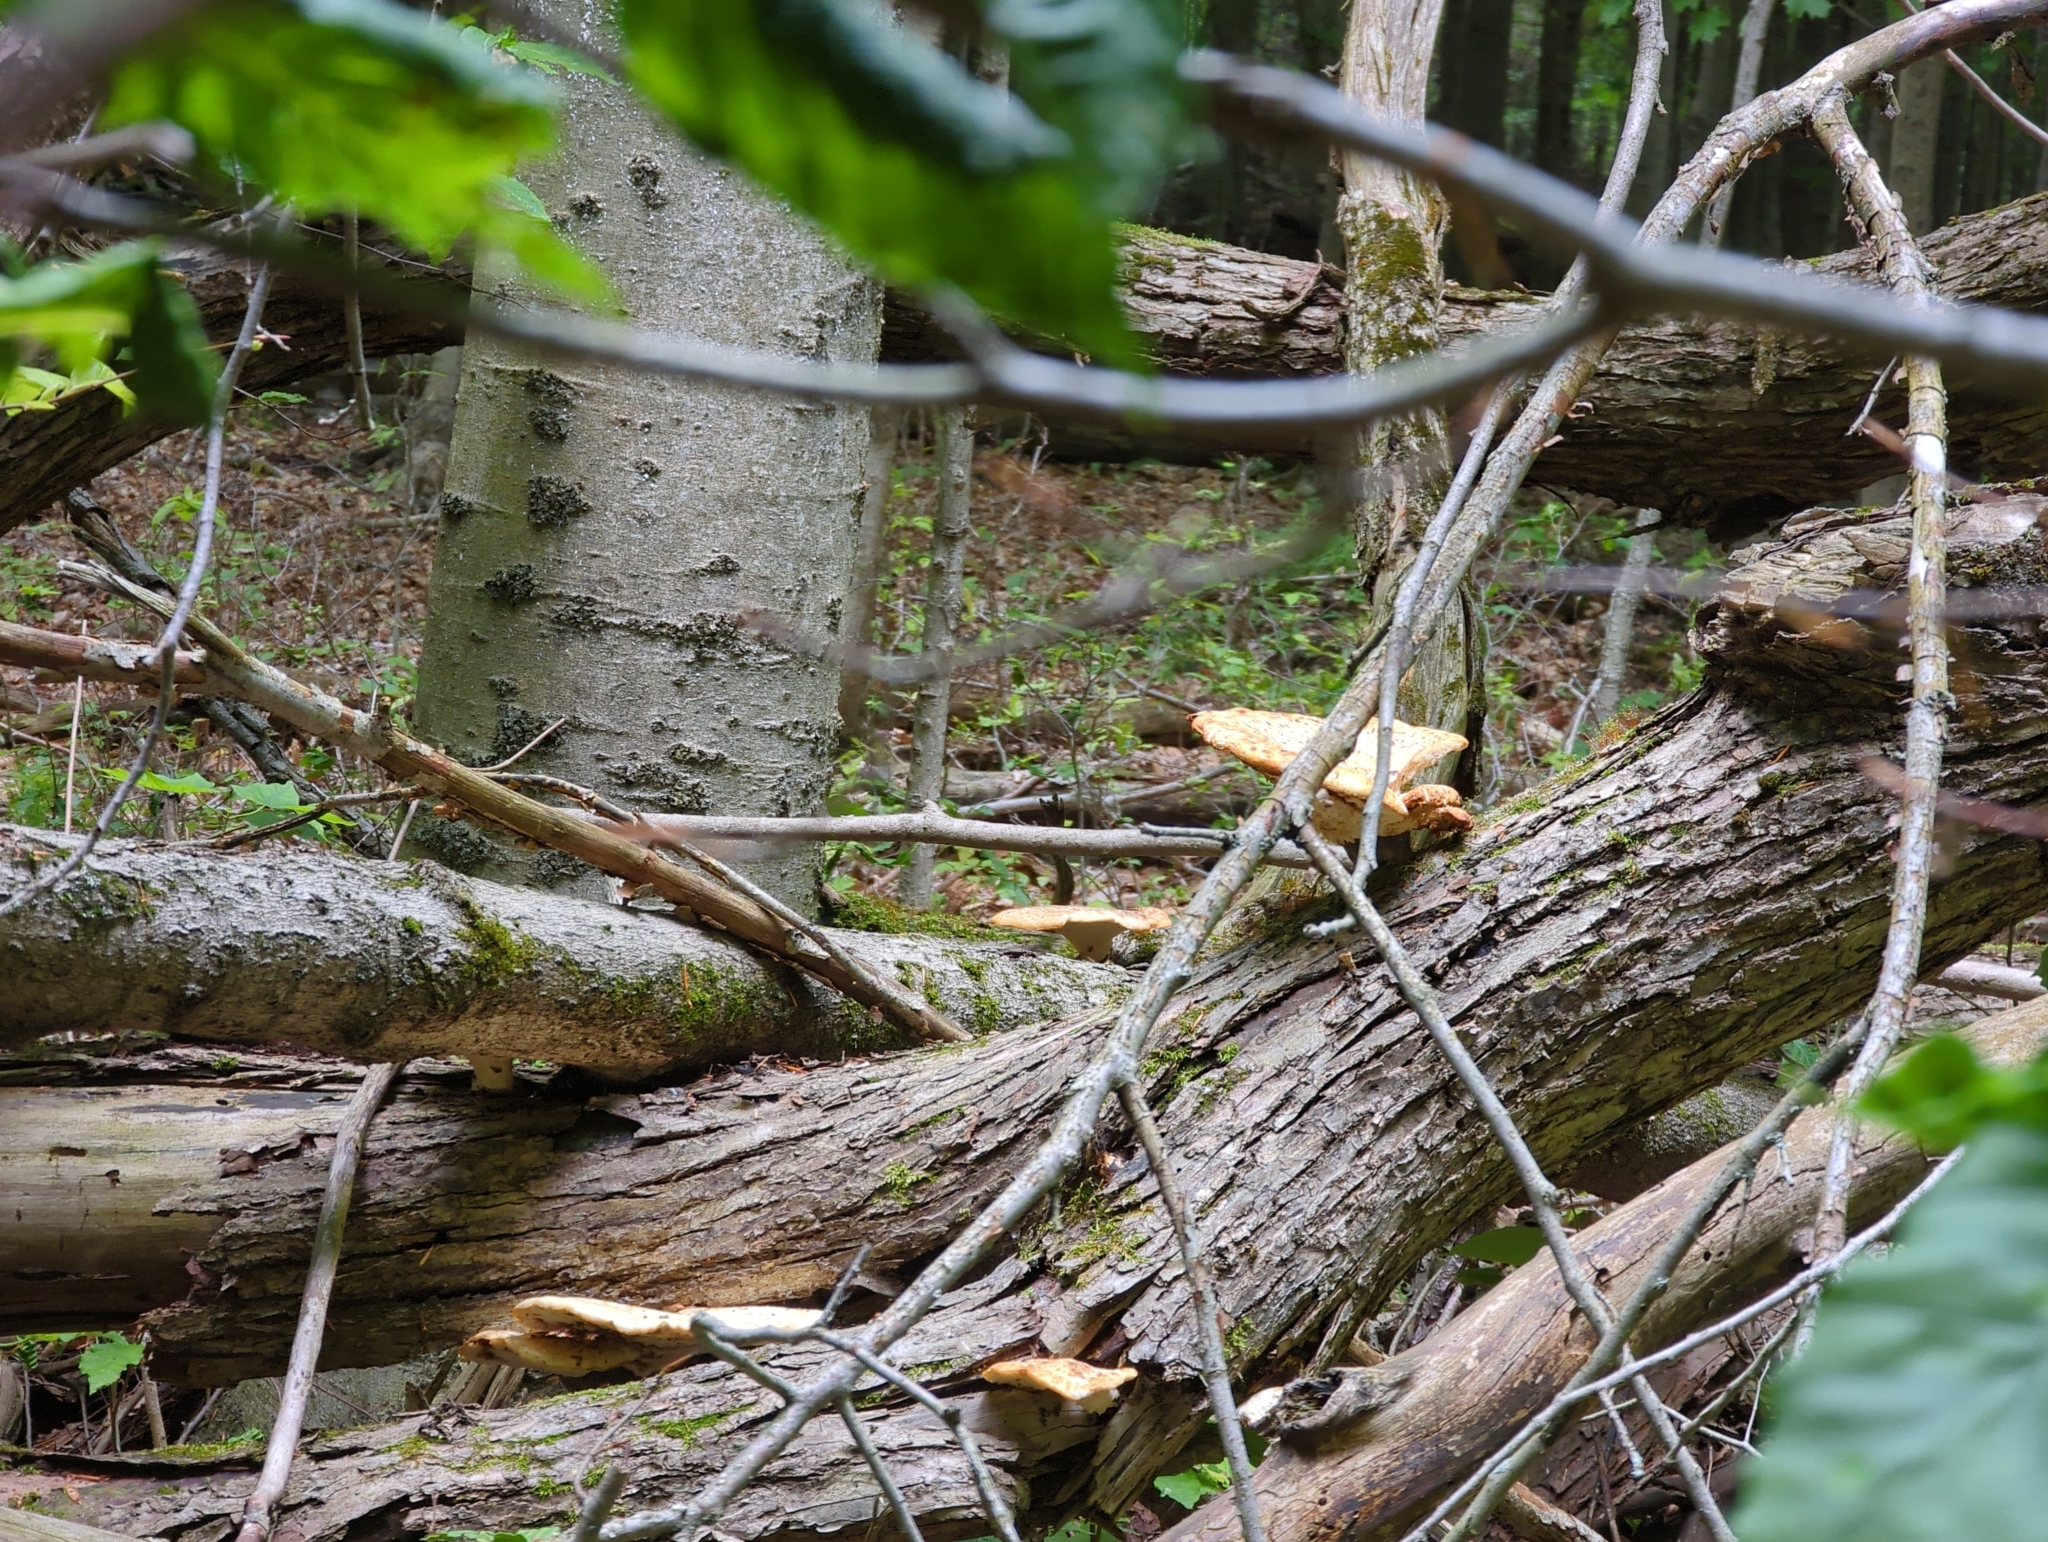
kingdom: Fungi
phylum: Basidiomycota
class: Agaricomycetes
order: Polyporales
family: Polyporaceae
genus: Cerioporus
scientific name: Cerioporus squamosus
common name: Dryad's saddle
